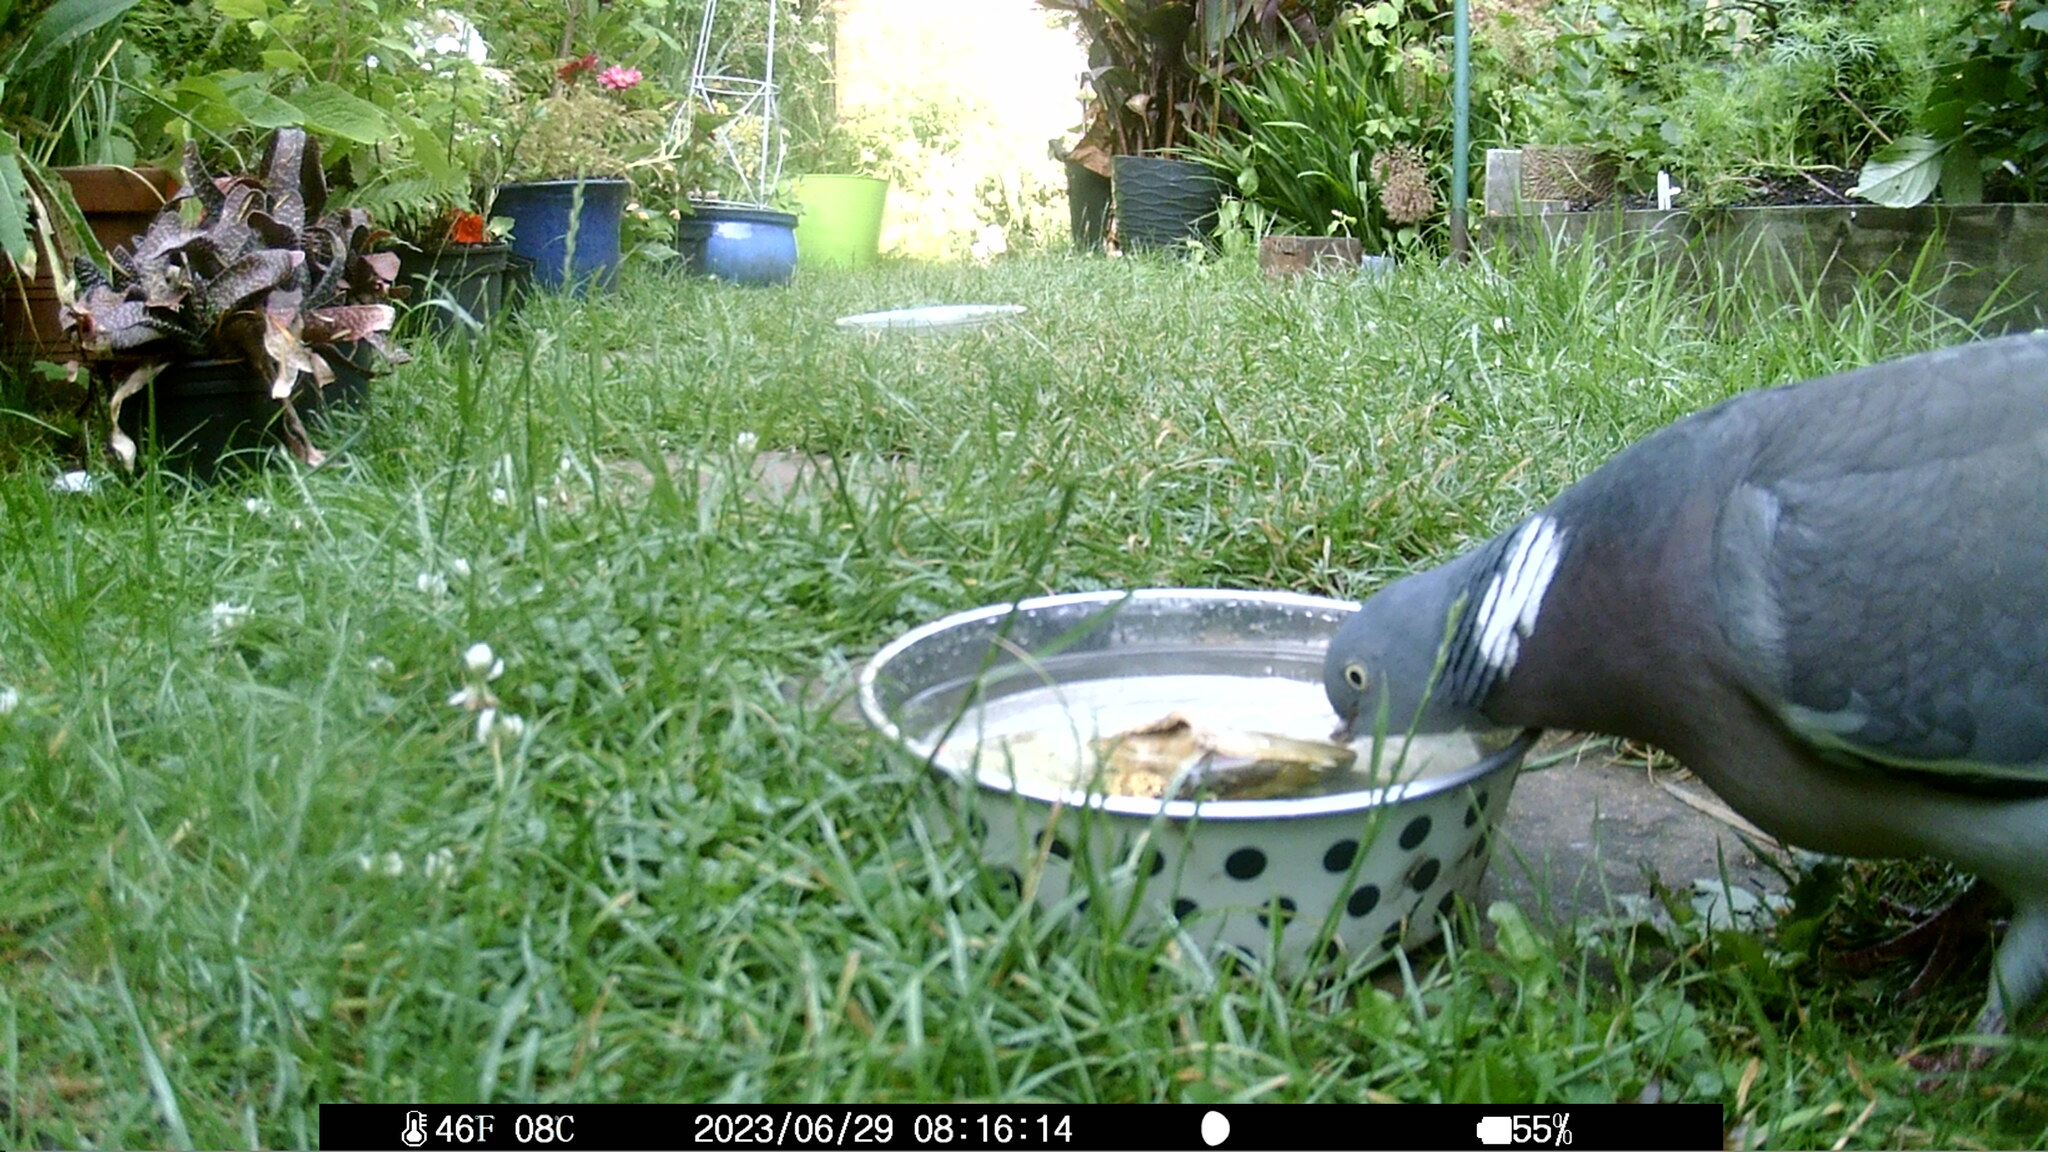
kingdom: Animalia
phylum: Chordata
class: Aves
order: Columbiformes
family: Columbidae
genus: Columba
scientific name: Columba palumbus
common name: Common wood pigeon
